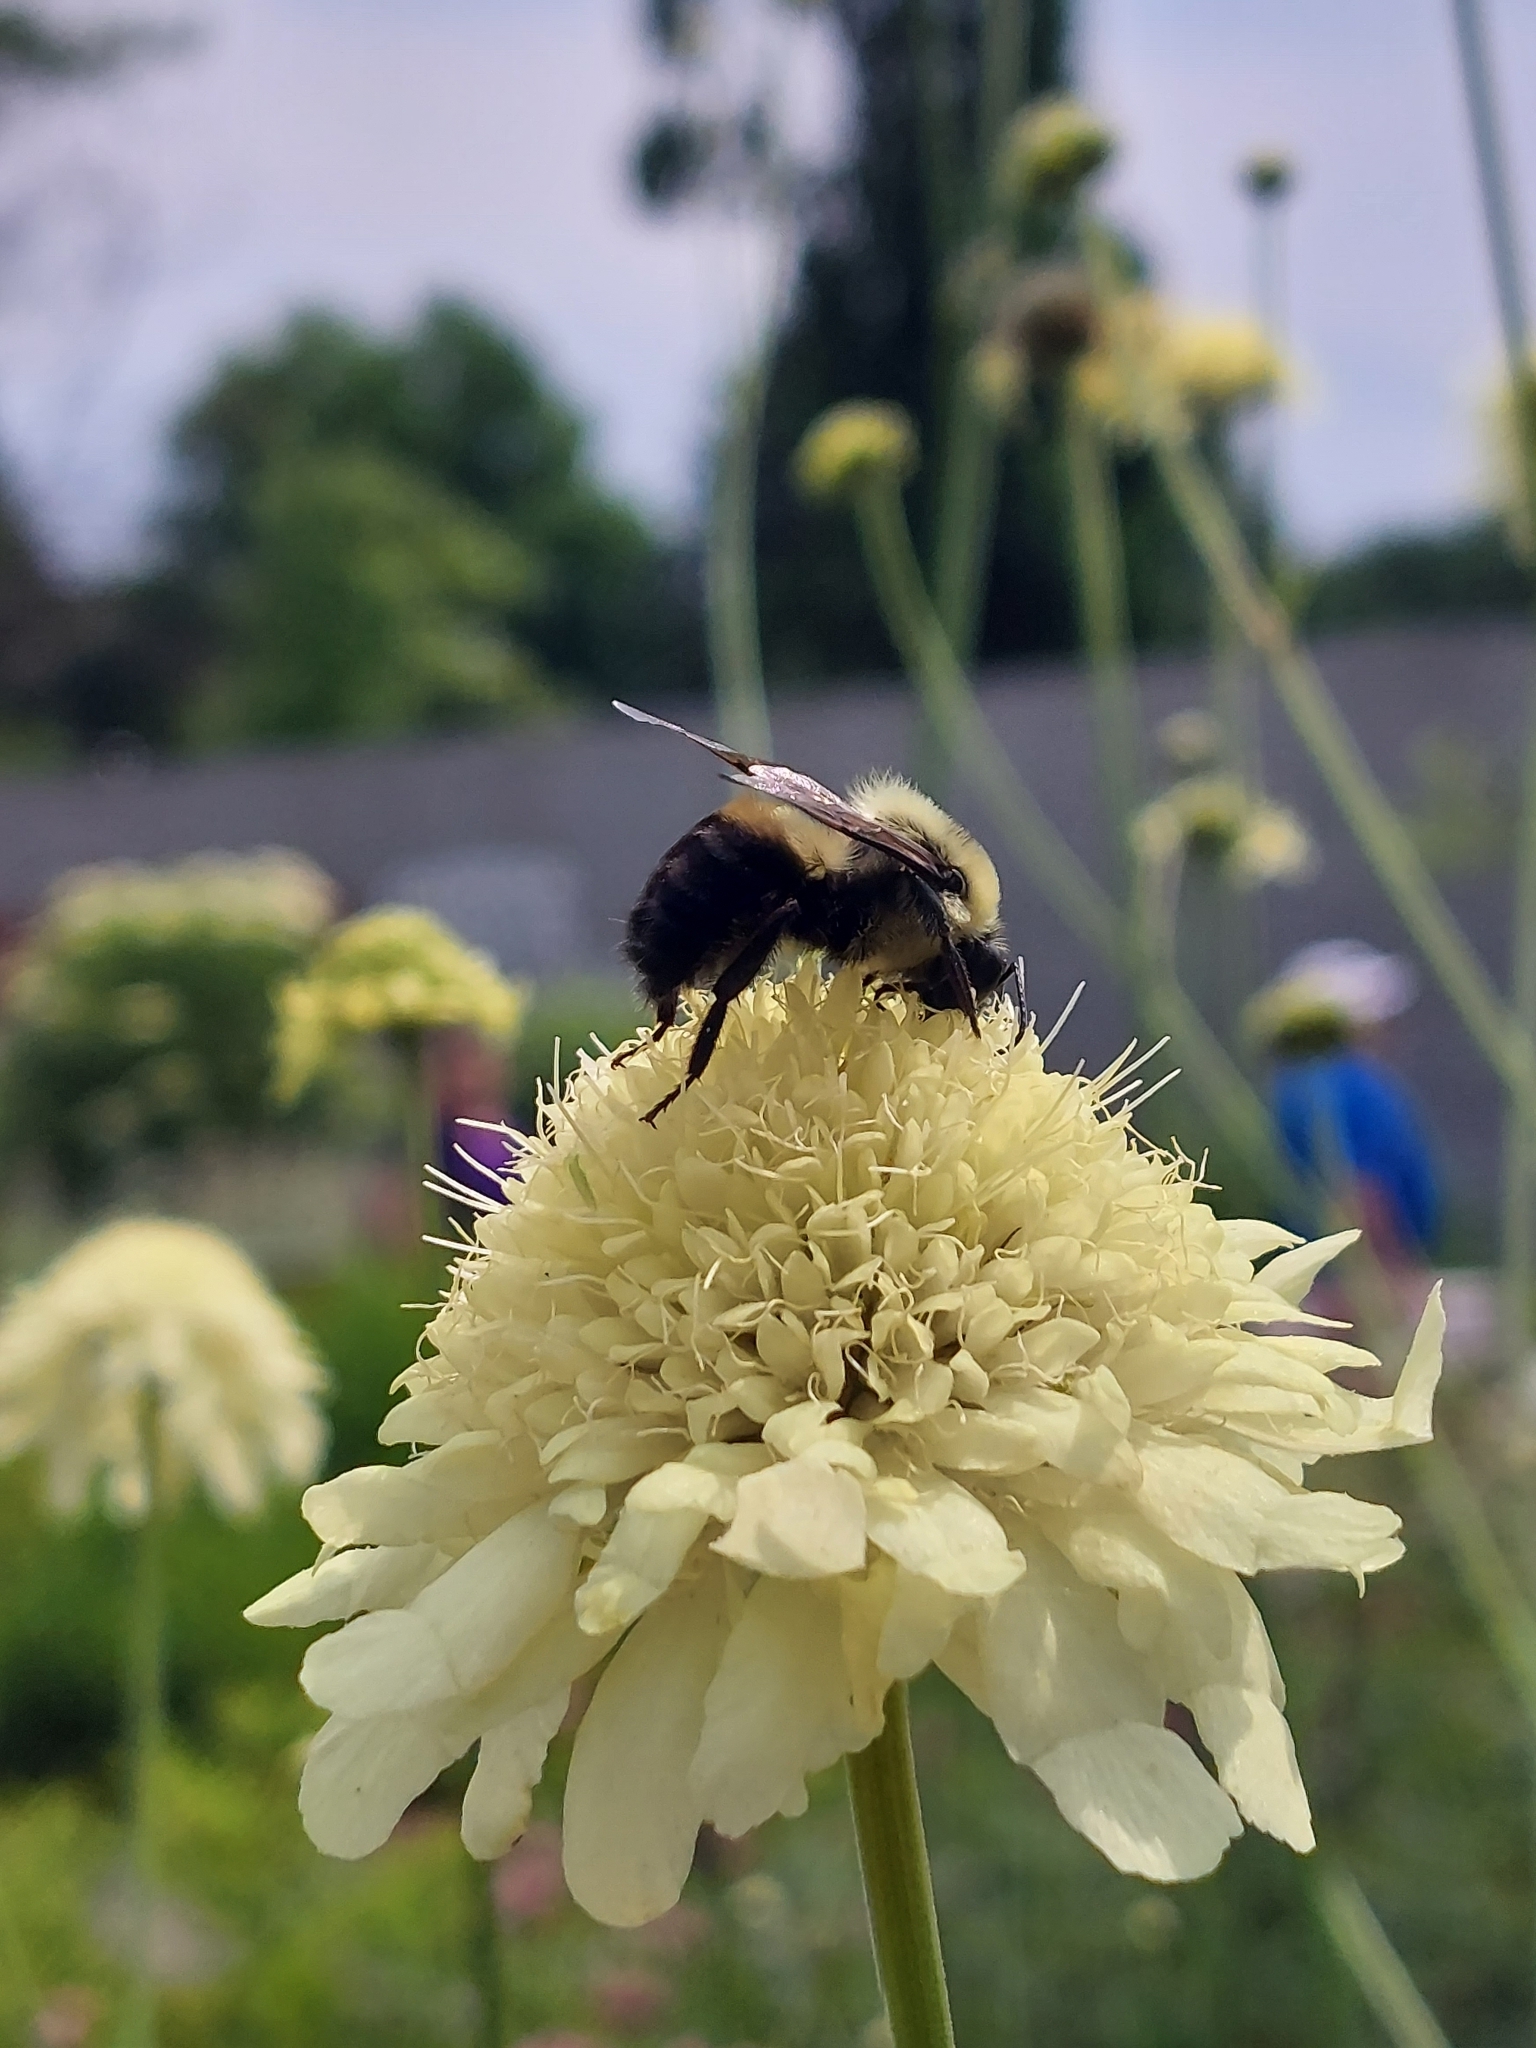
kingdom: Animalia
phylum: Arthropoda
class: Insecta
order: Hymenoptera
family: Apidae
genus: Bombus
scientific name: Bombus griseocollis
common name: Brown-belted bumble bee
